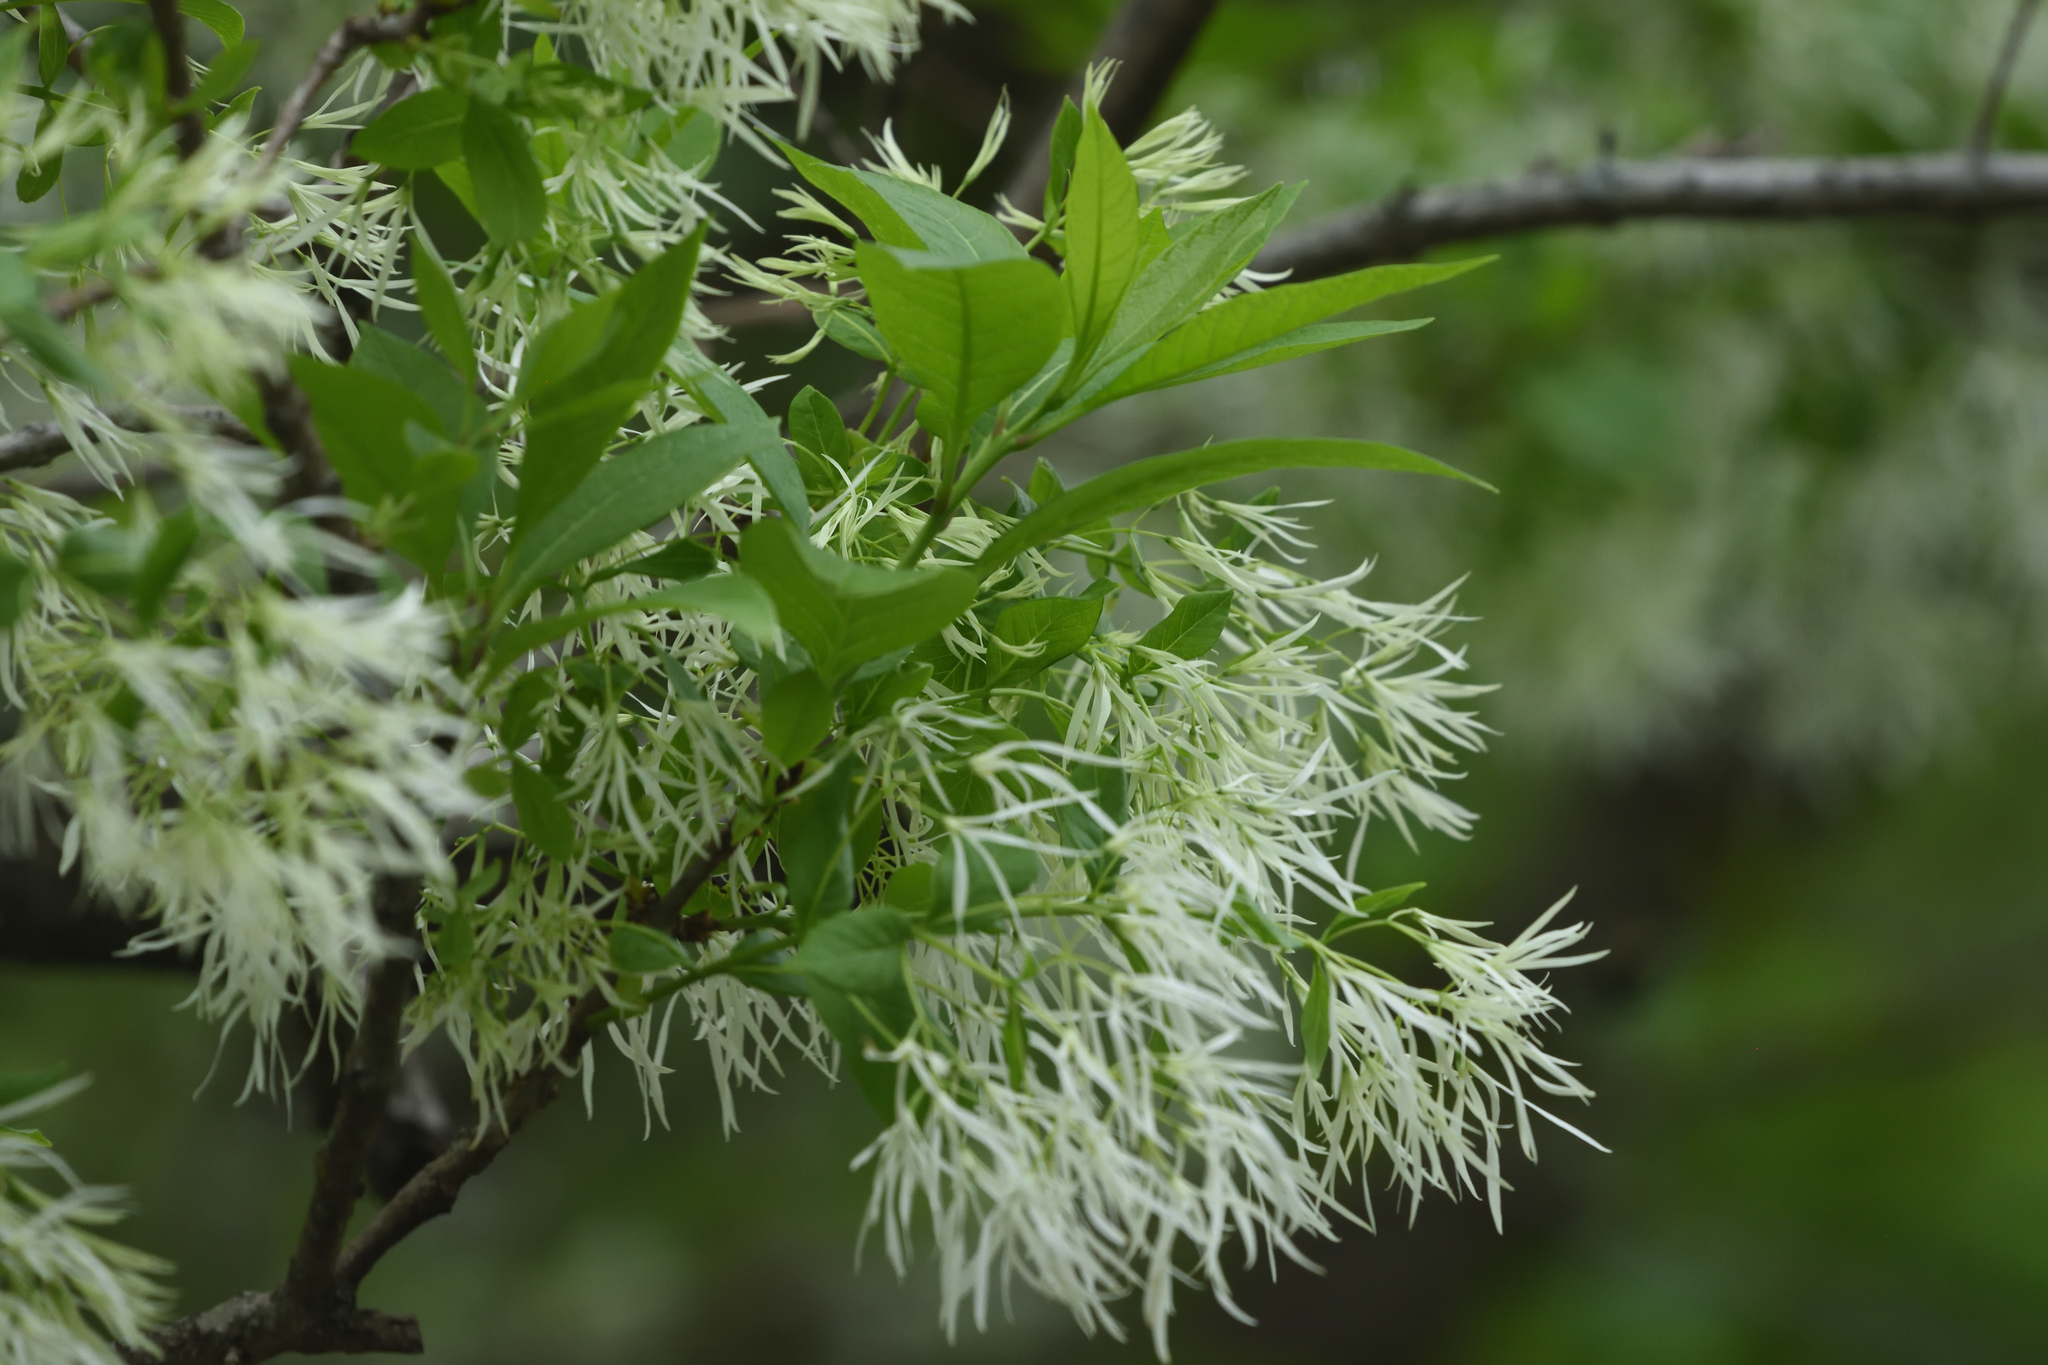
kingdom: Plantae
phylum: Tracheophyta
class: Magnoliopsida
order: Lamiales
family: Oleaceae
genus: Chionanthus
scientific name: Chionanthus virginicus
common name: American fringetree
